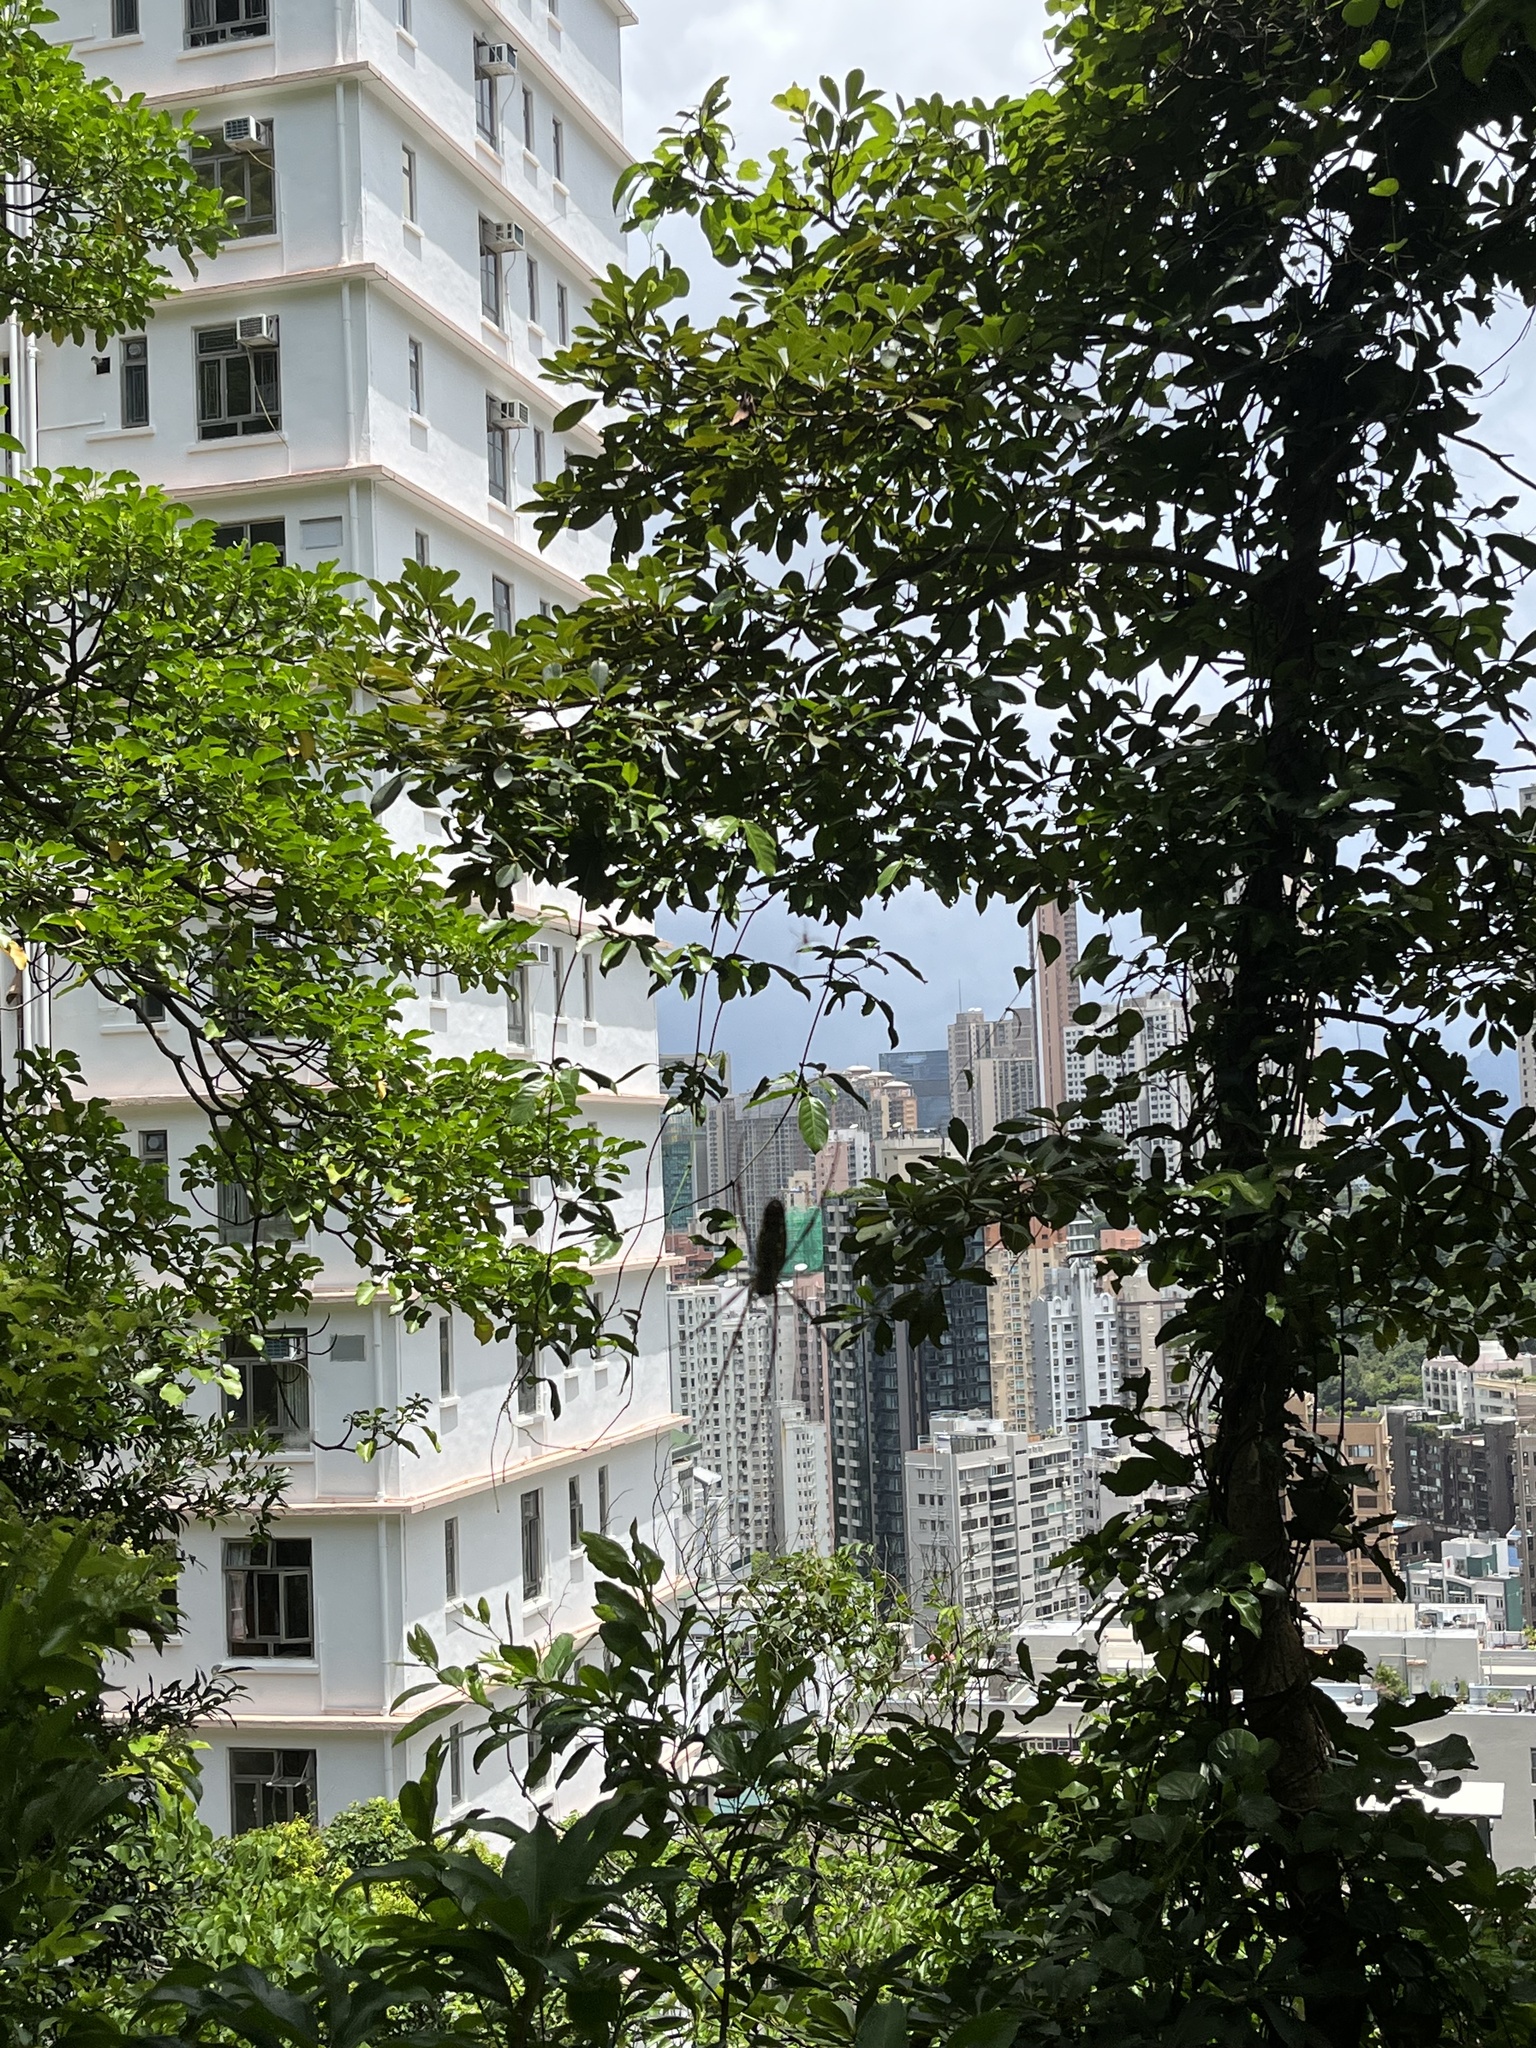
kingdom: Animalia
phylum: Arthropoda
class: Arachnida
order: Araneae
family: Araneidae
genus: Nephila
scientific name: Nephila pilipes
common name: Giant golden orb weaver
